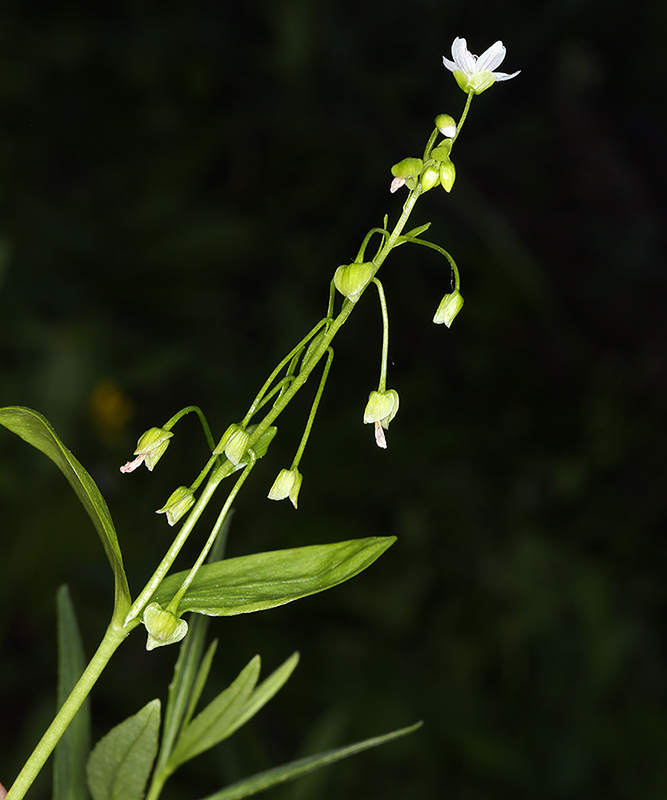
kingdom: Plantae
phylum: Tracheophyta
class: Magnoliopsida
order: Caryophyllales
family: Montiaceae
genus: Claytonia
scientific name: Claytonia sibirica
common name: Pink purslane
